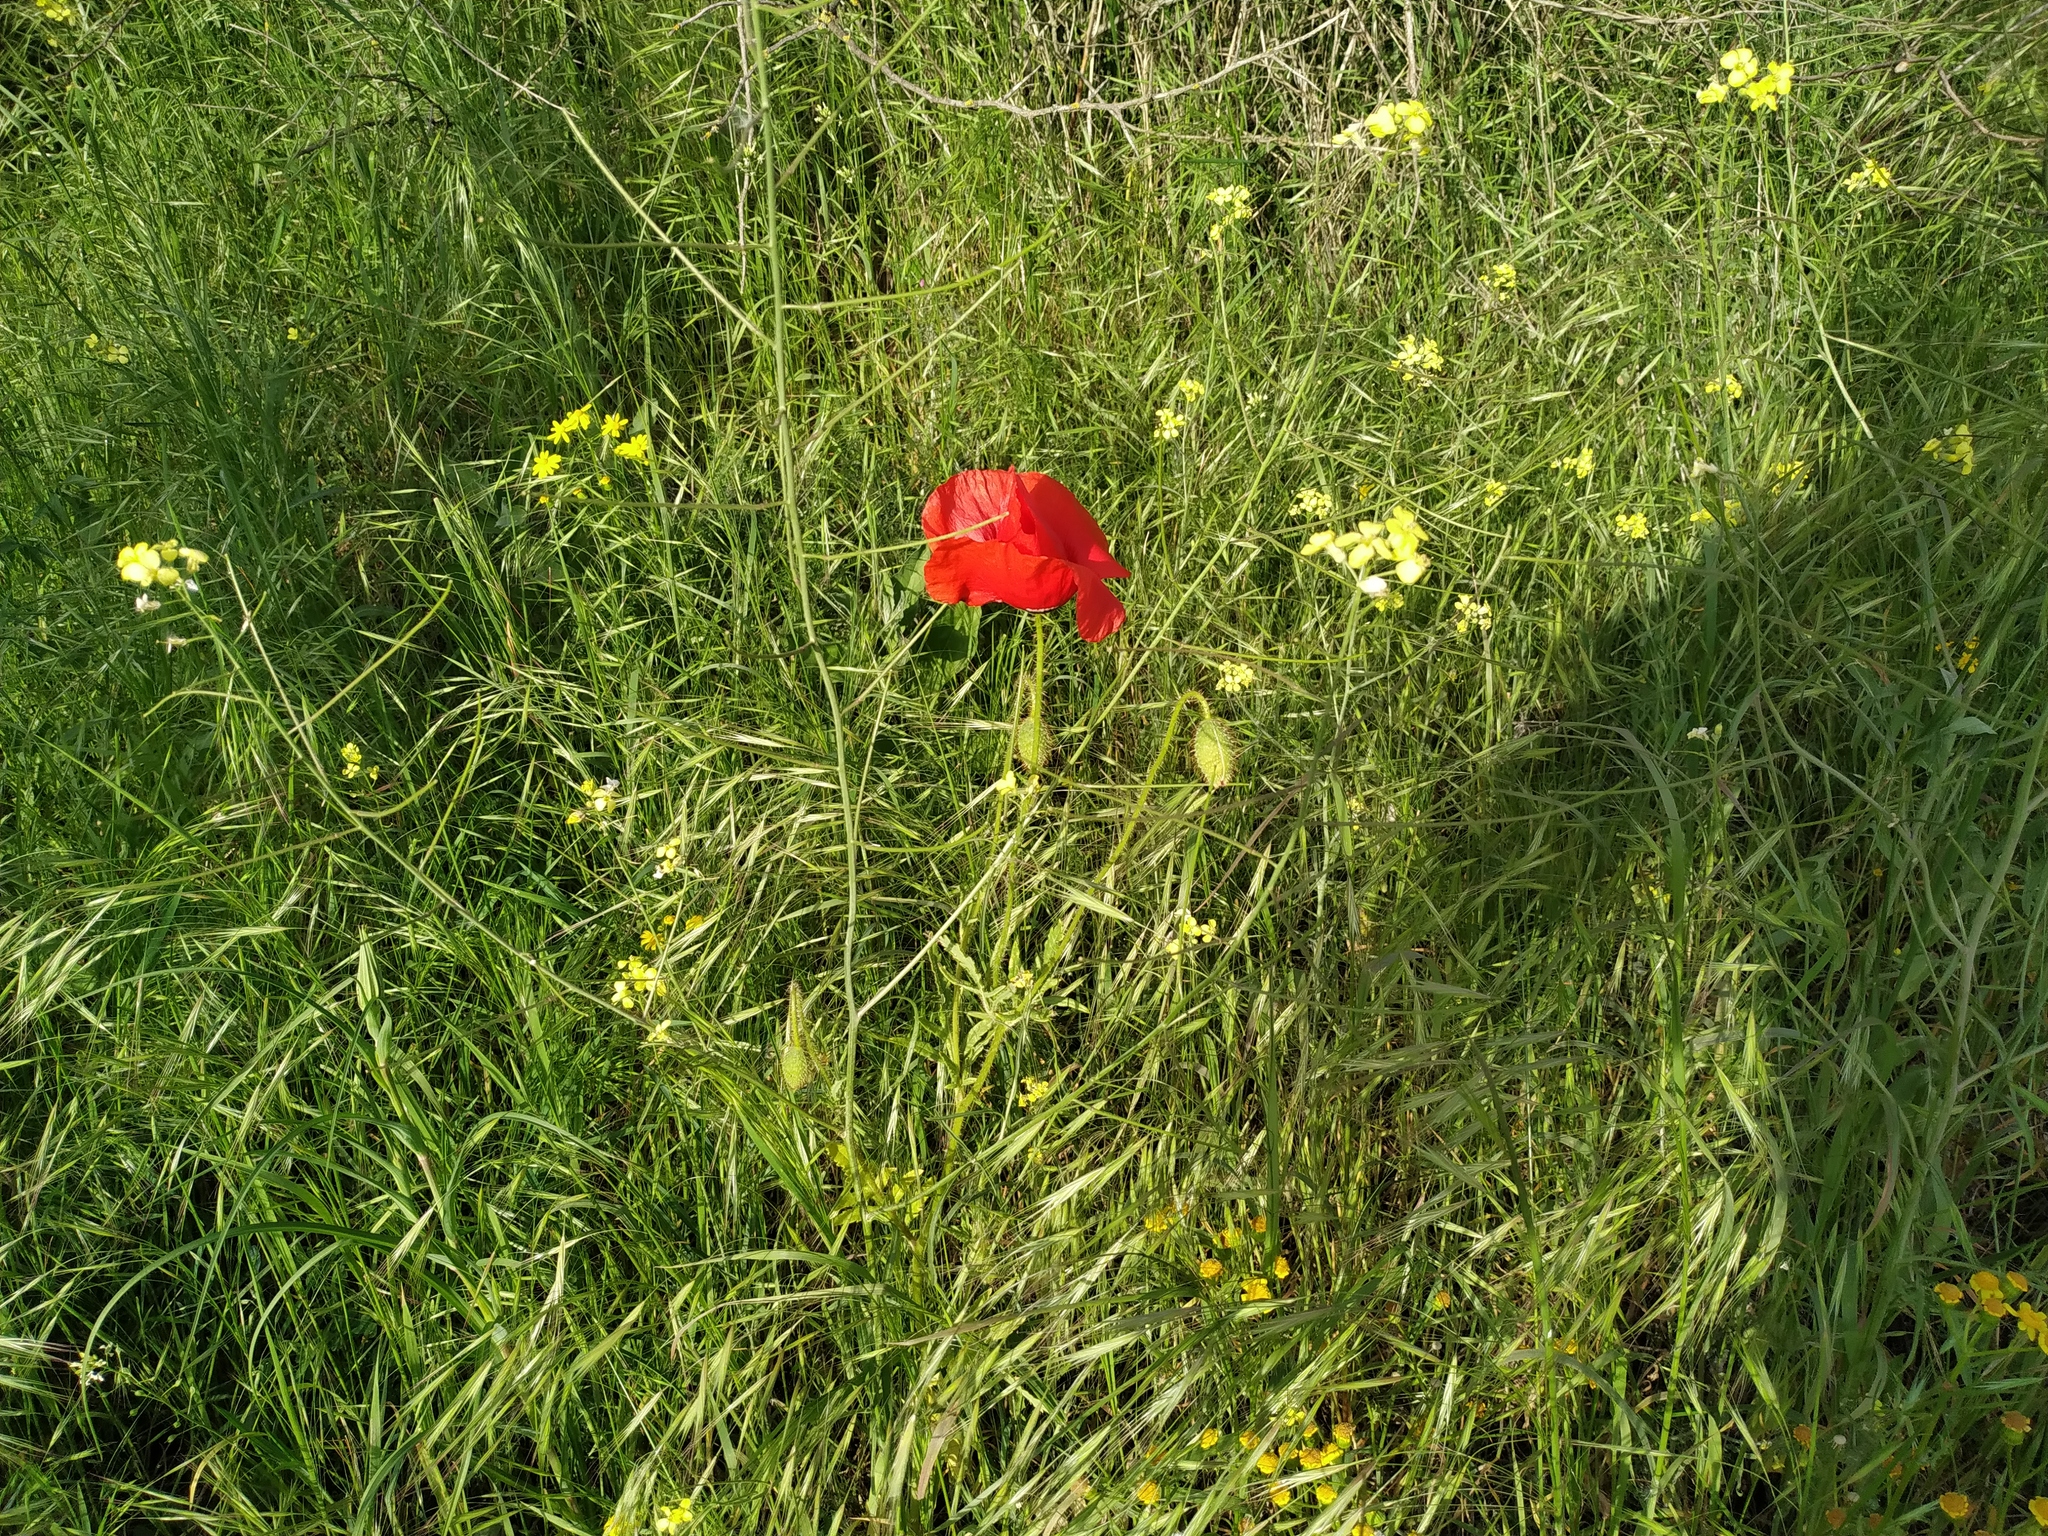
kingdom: Plantae
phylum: Tracheophyta
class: Magnoliopsida
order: Ranunculales
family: Papaveraceae
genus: Papaver
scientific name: Papaver rhoeas
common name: Corn poppy
